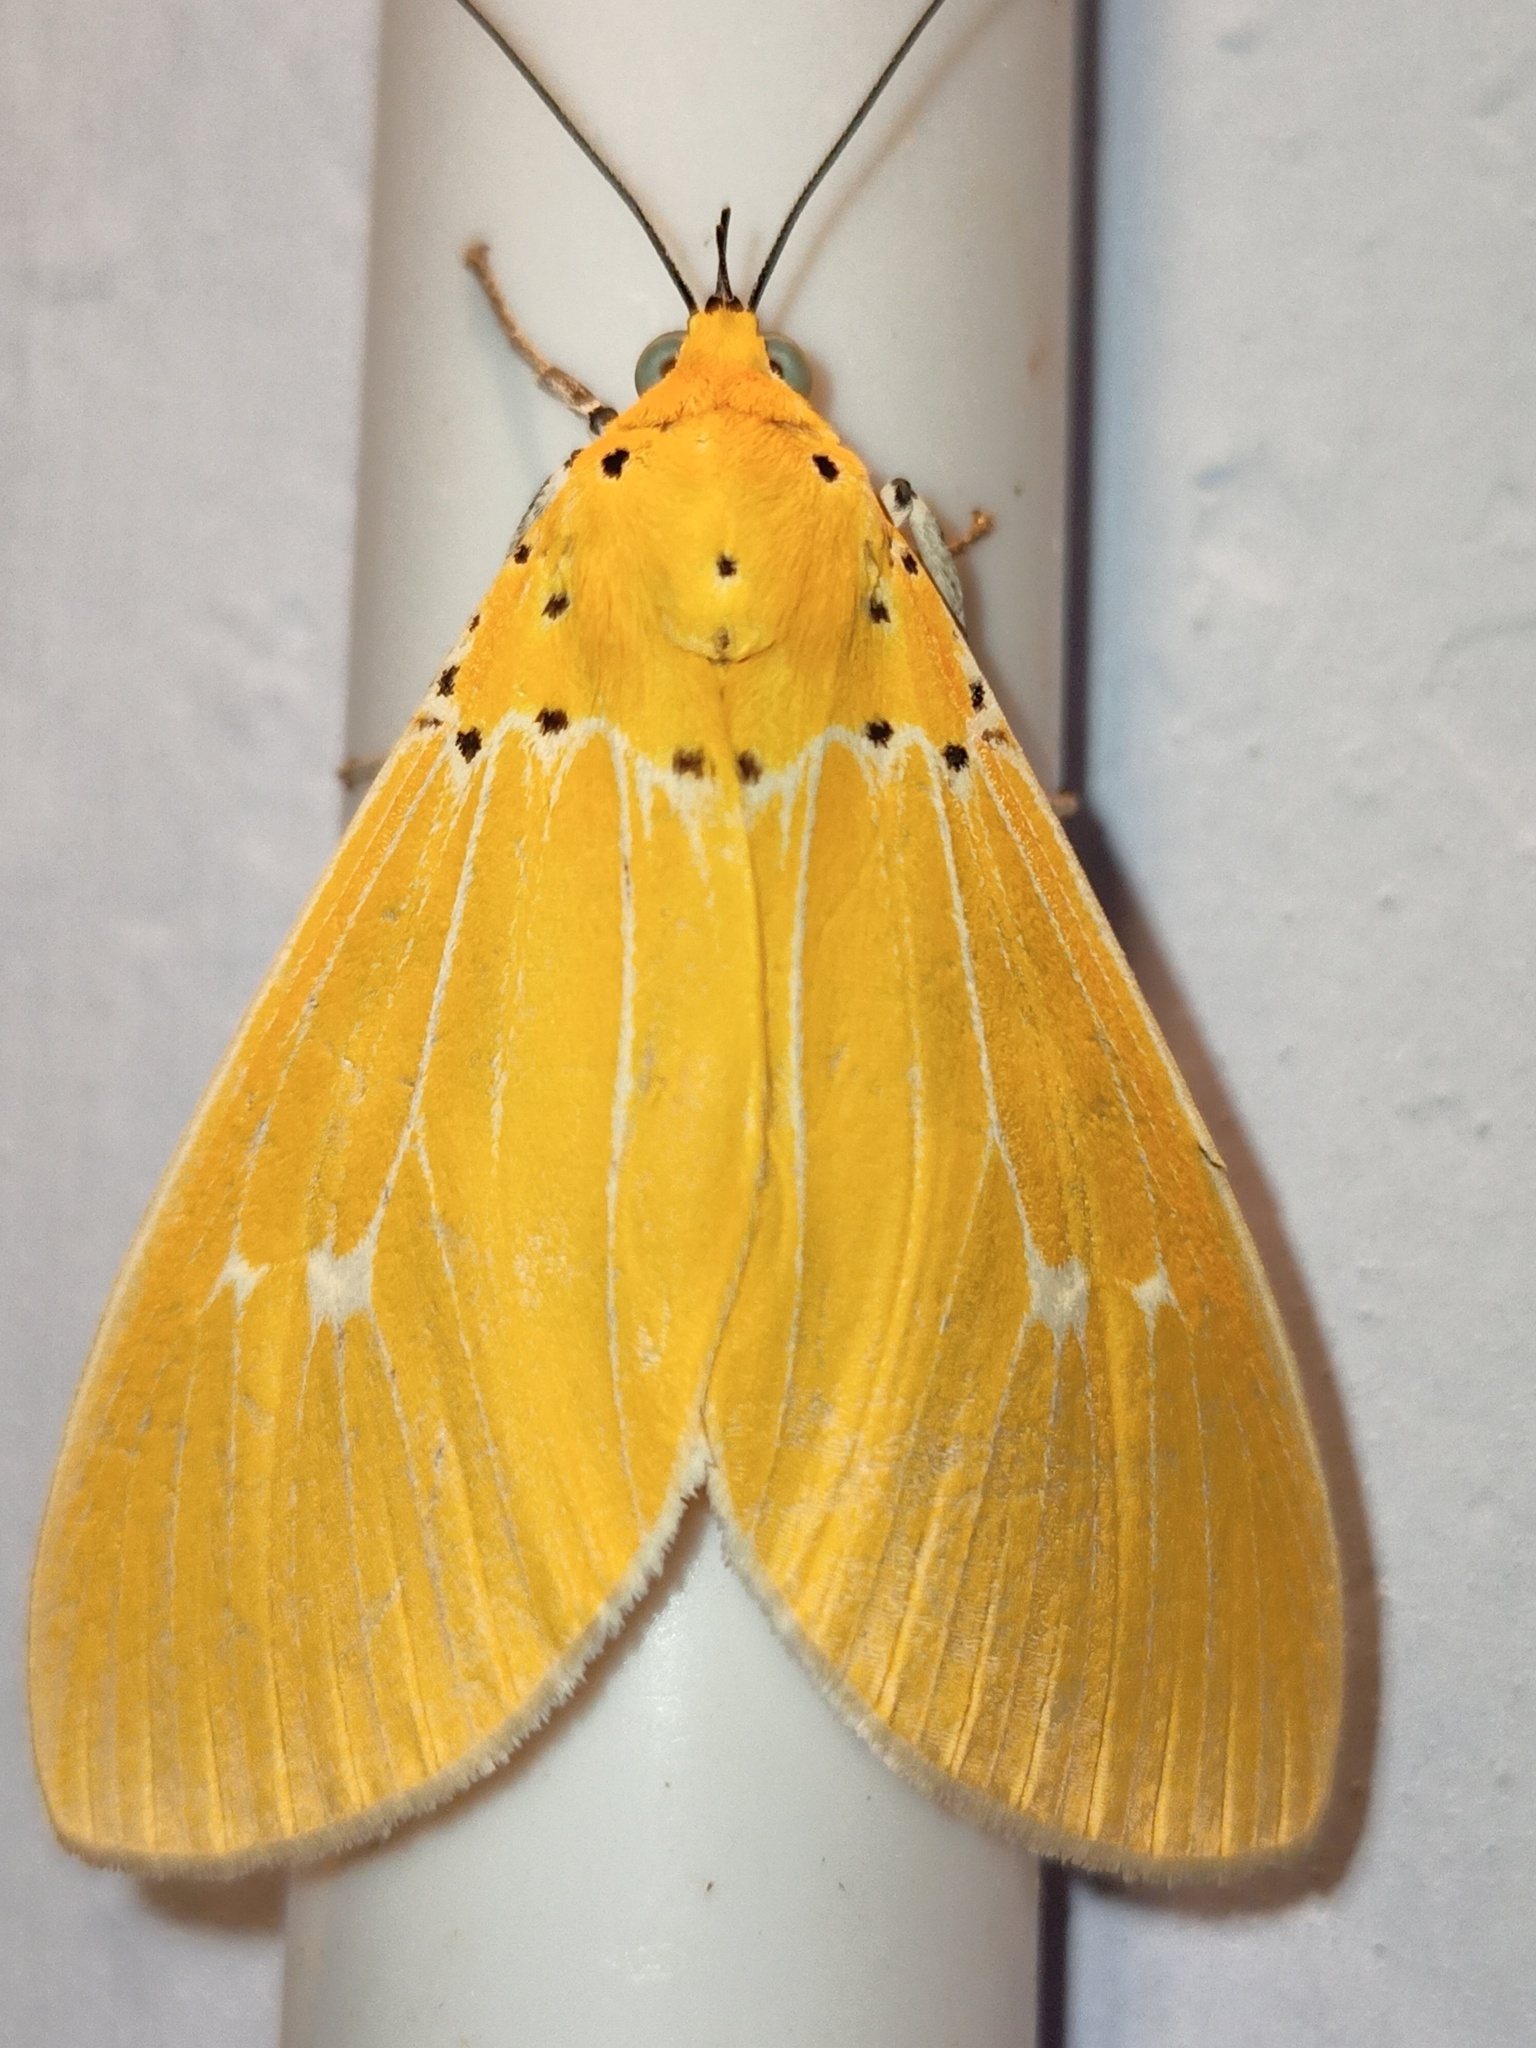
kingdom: Animalia
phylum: Arthropoda
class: Insecta
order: Lepidoptera
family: Erebidae
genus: Asota
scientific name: Asota sericea
